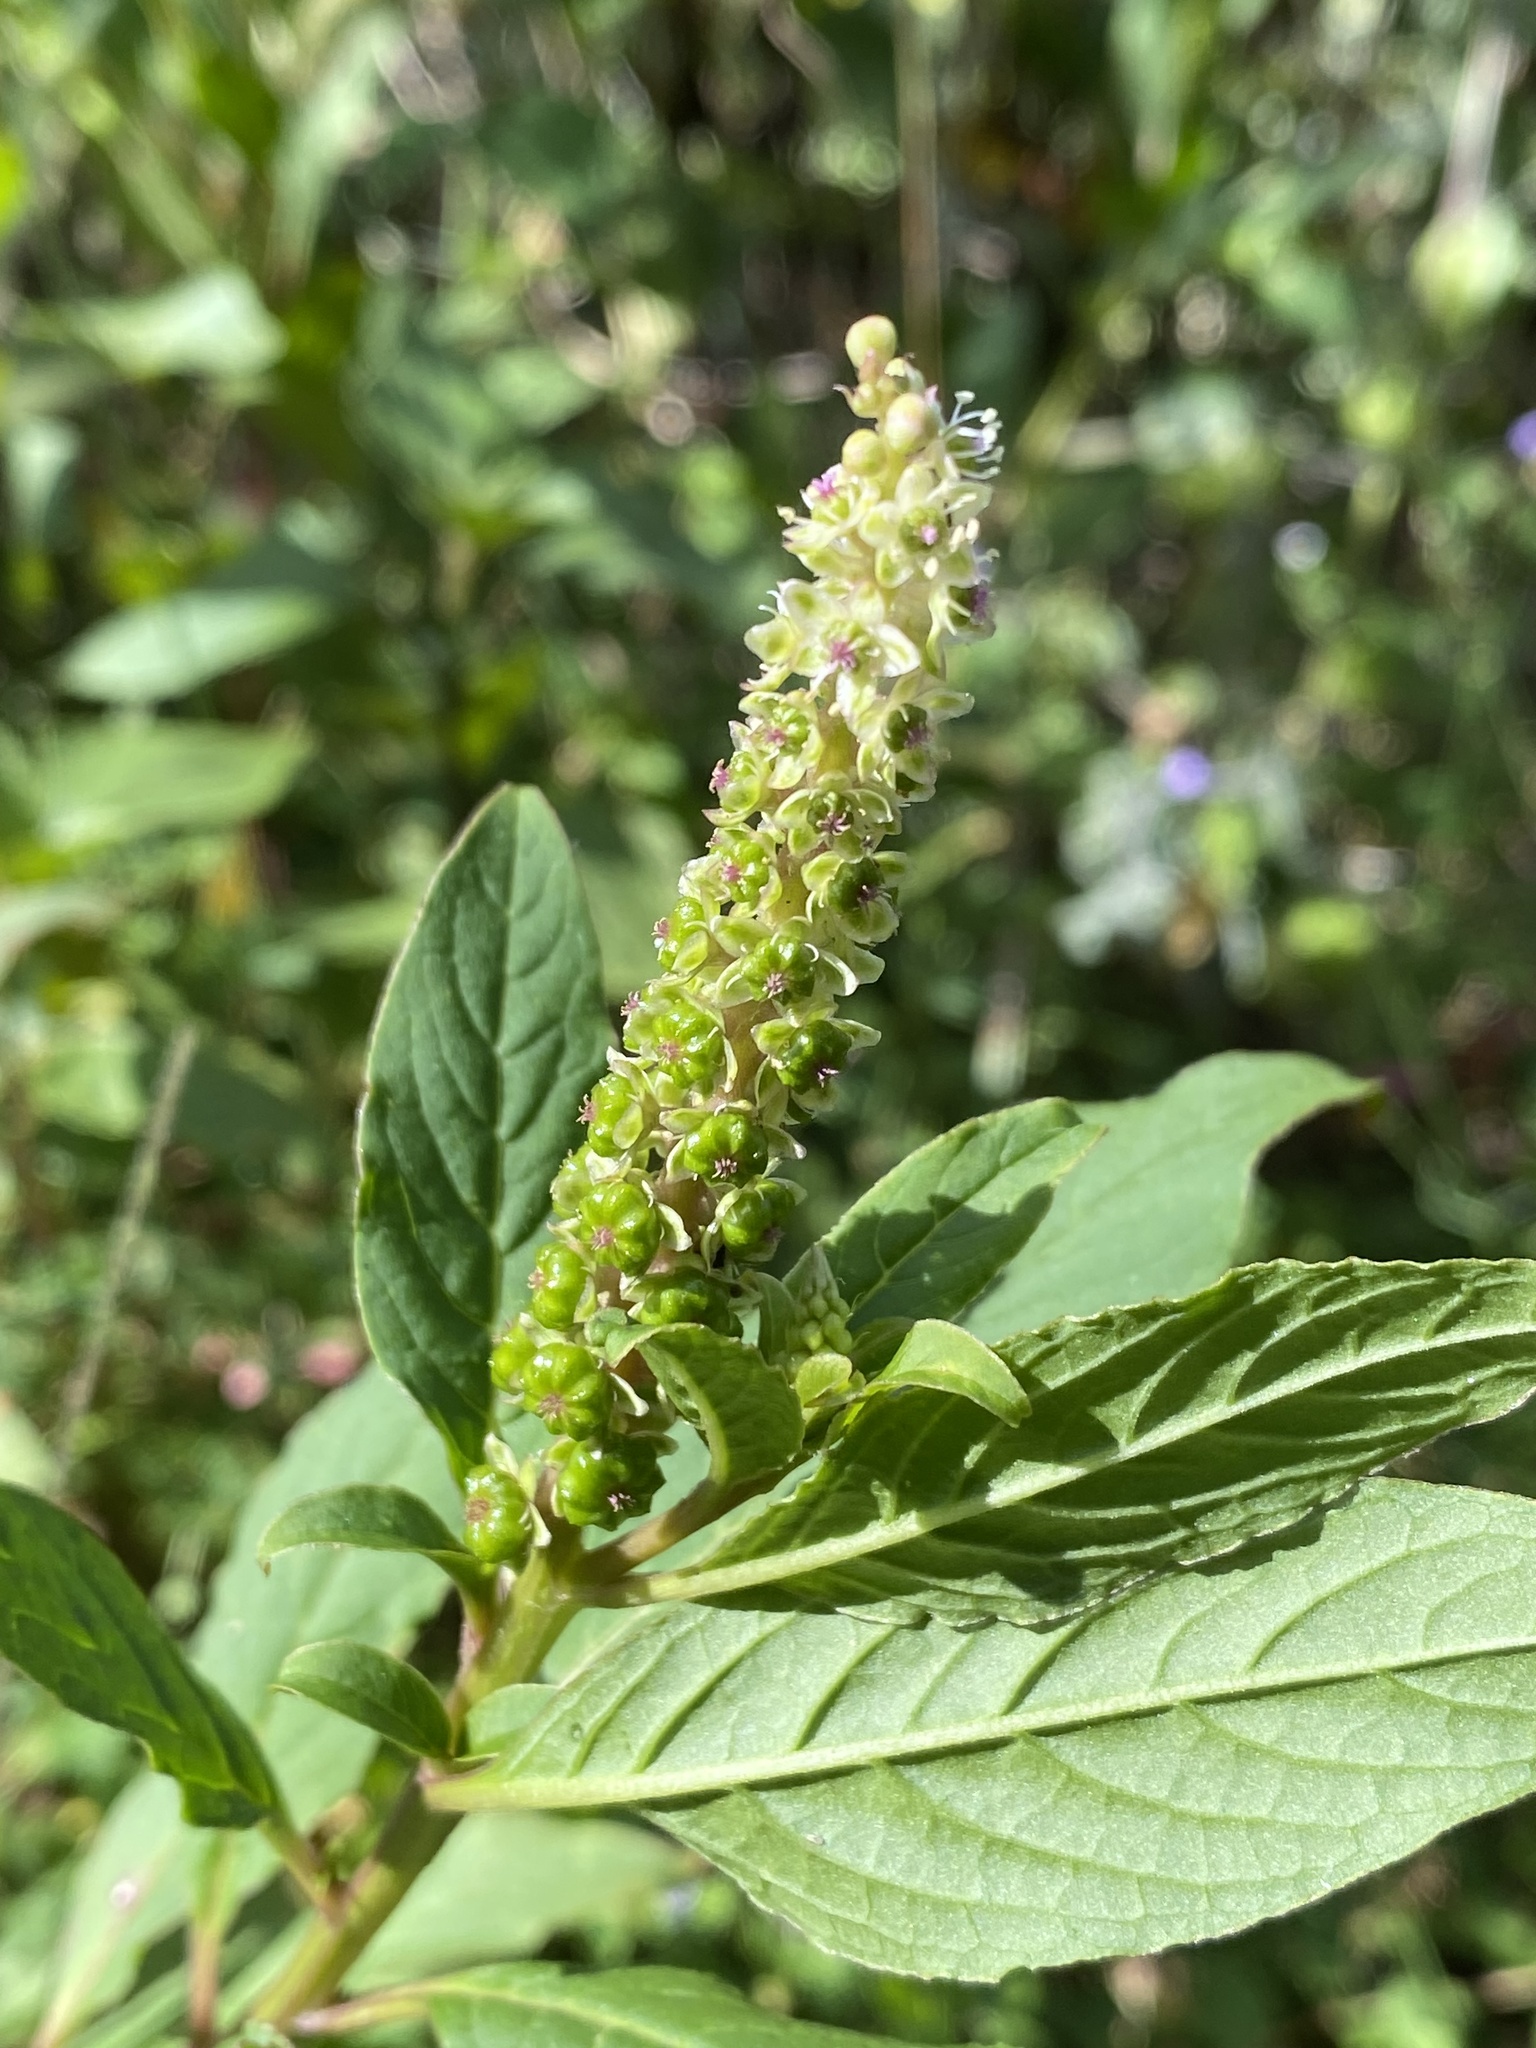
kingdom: Plantae
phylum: Tracheophyta
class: Magnoliopsida
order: Caryophyllales
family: Phytolaccaceae
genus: Phytolacca
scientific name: Phytolacca icosandra
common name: Button pokeweed
